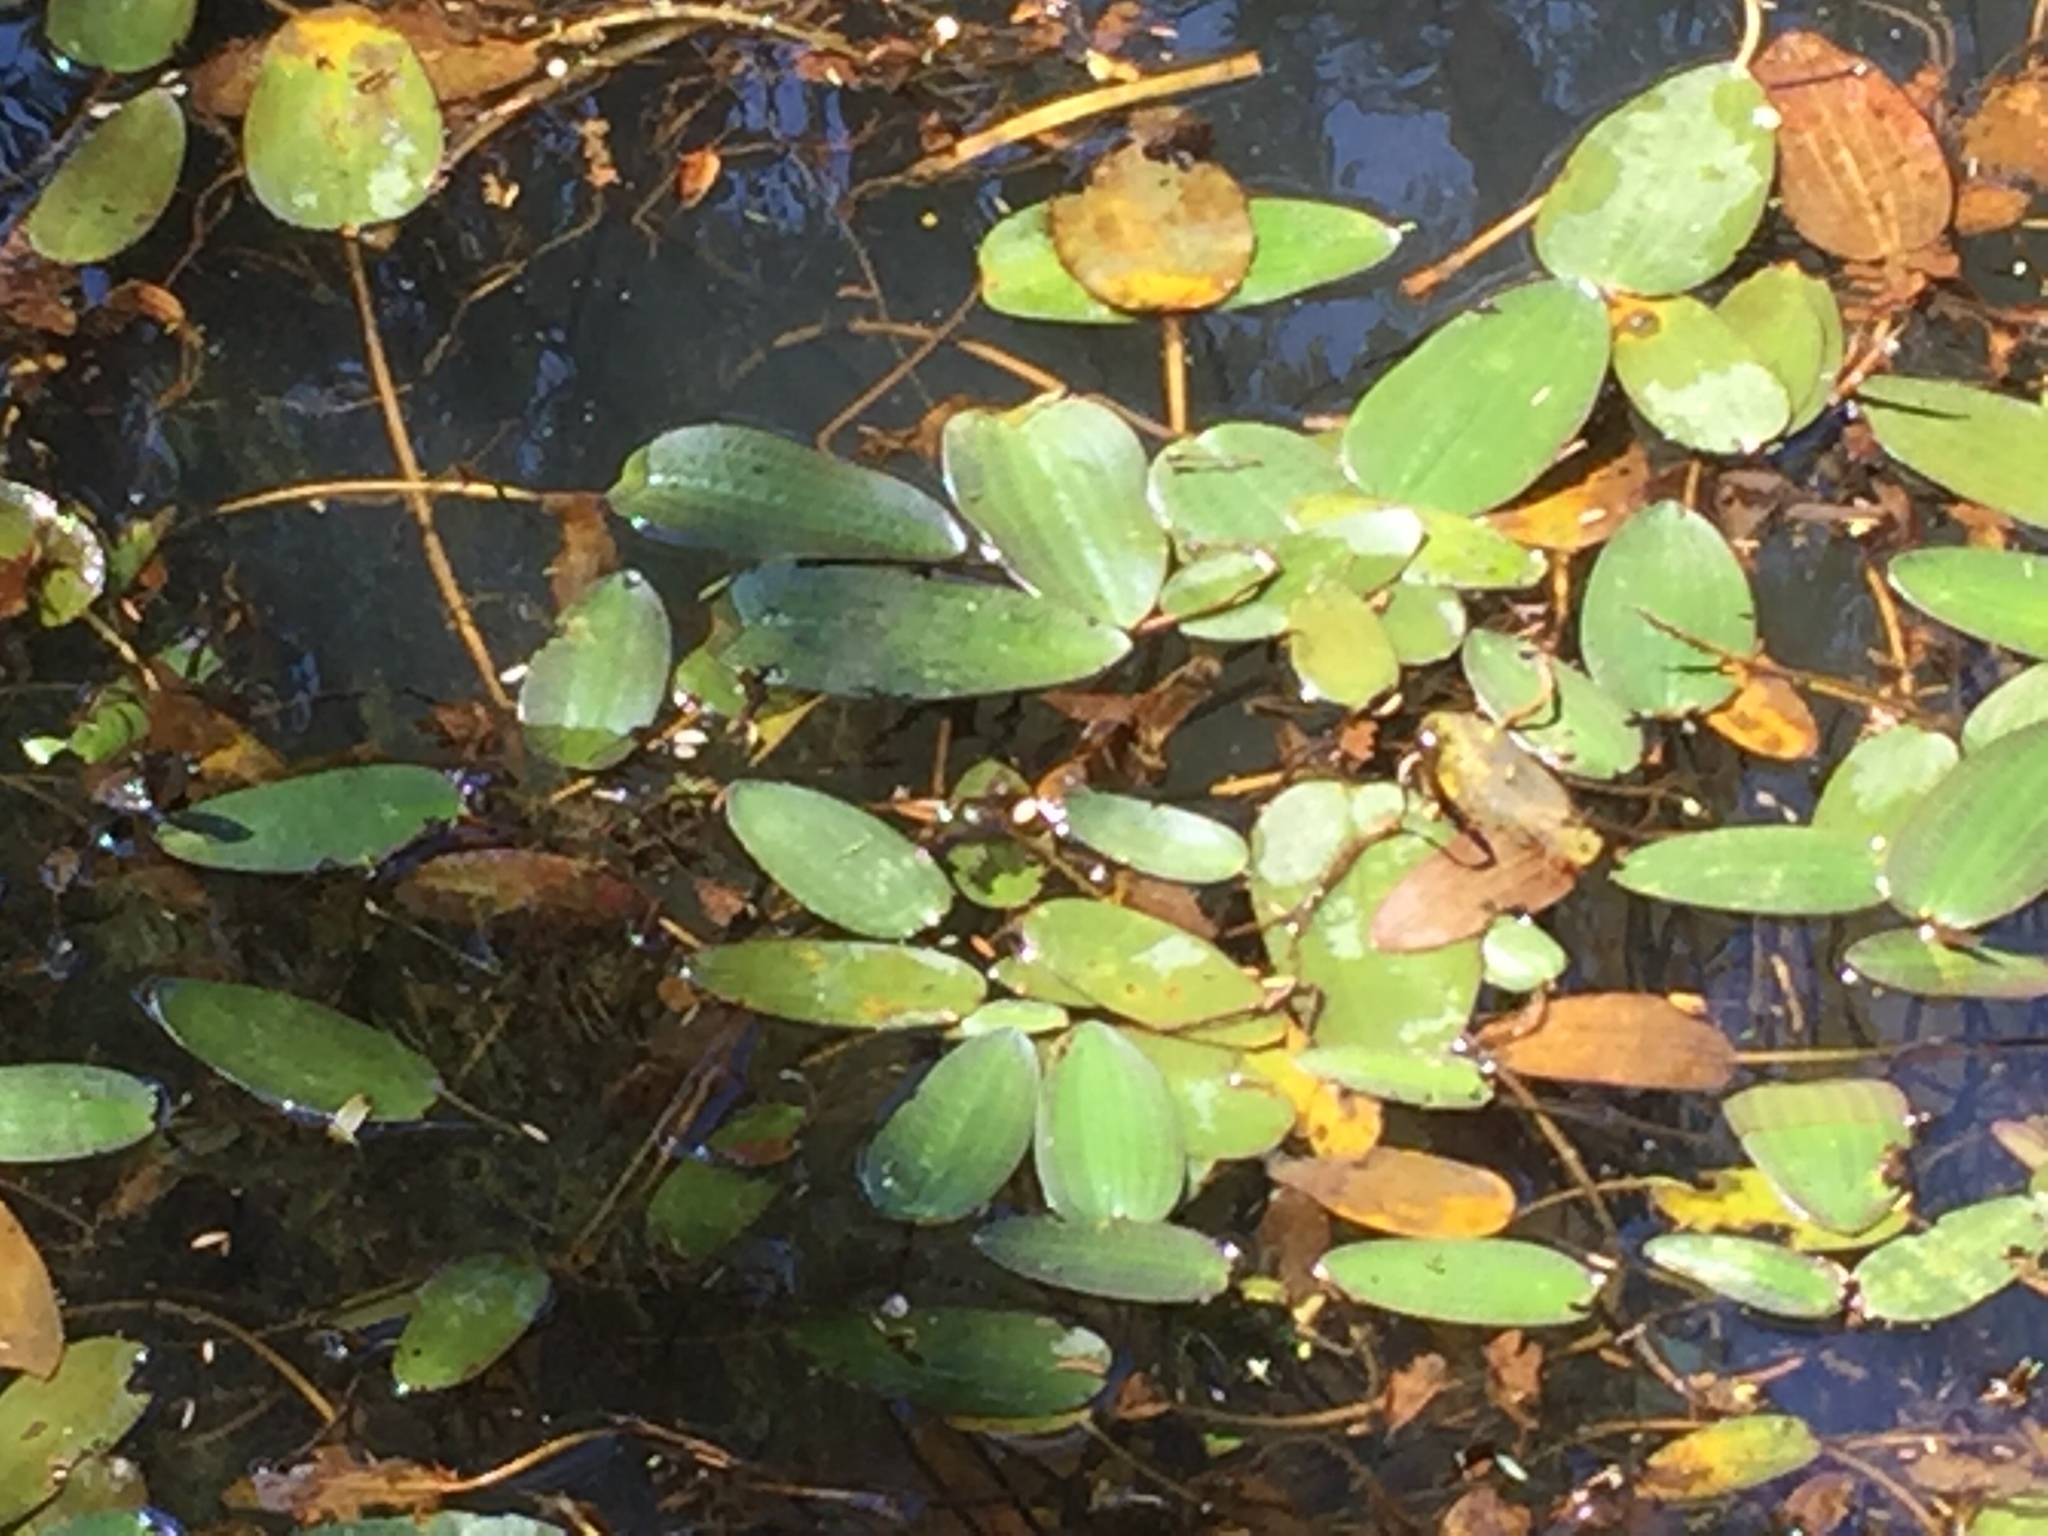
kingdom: Plantae
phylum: Tracheophyta
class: Liliopsida
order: Alismatales
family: Potamogetonaceae
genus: Potamogeton
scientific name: Potamogeton cheesemanii
